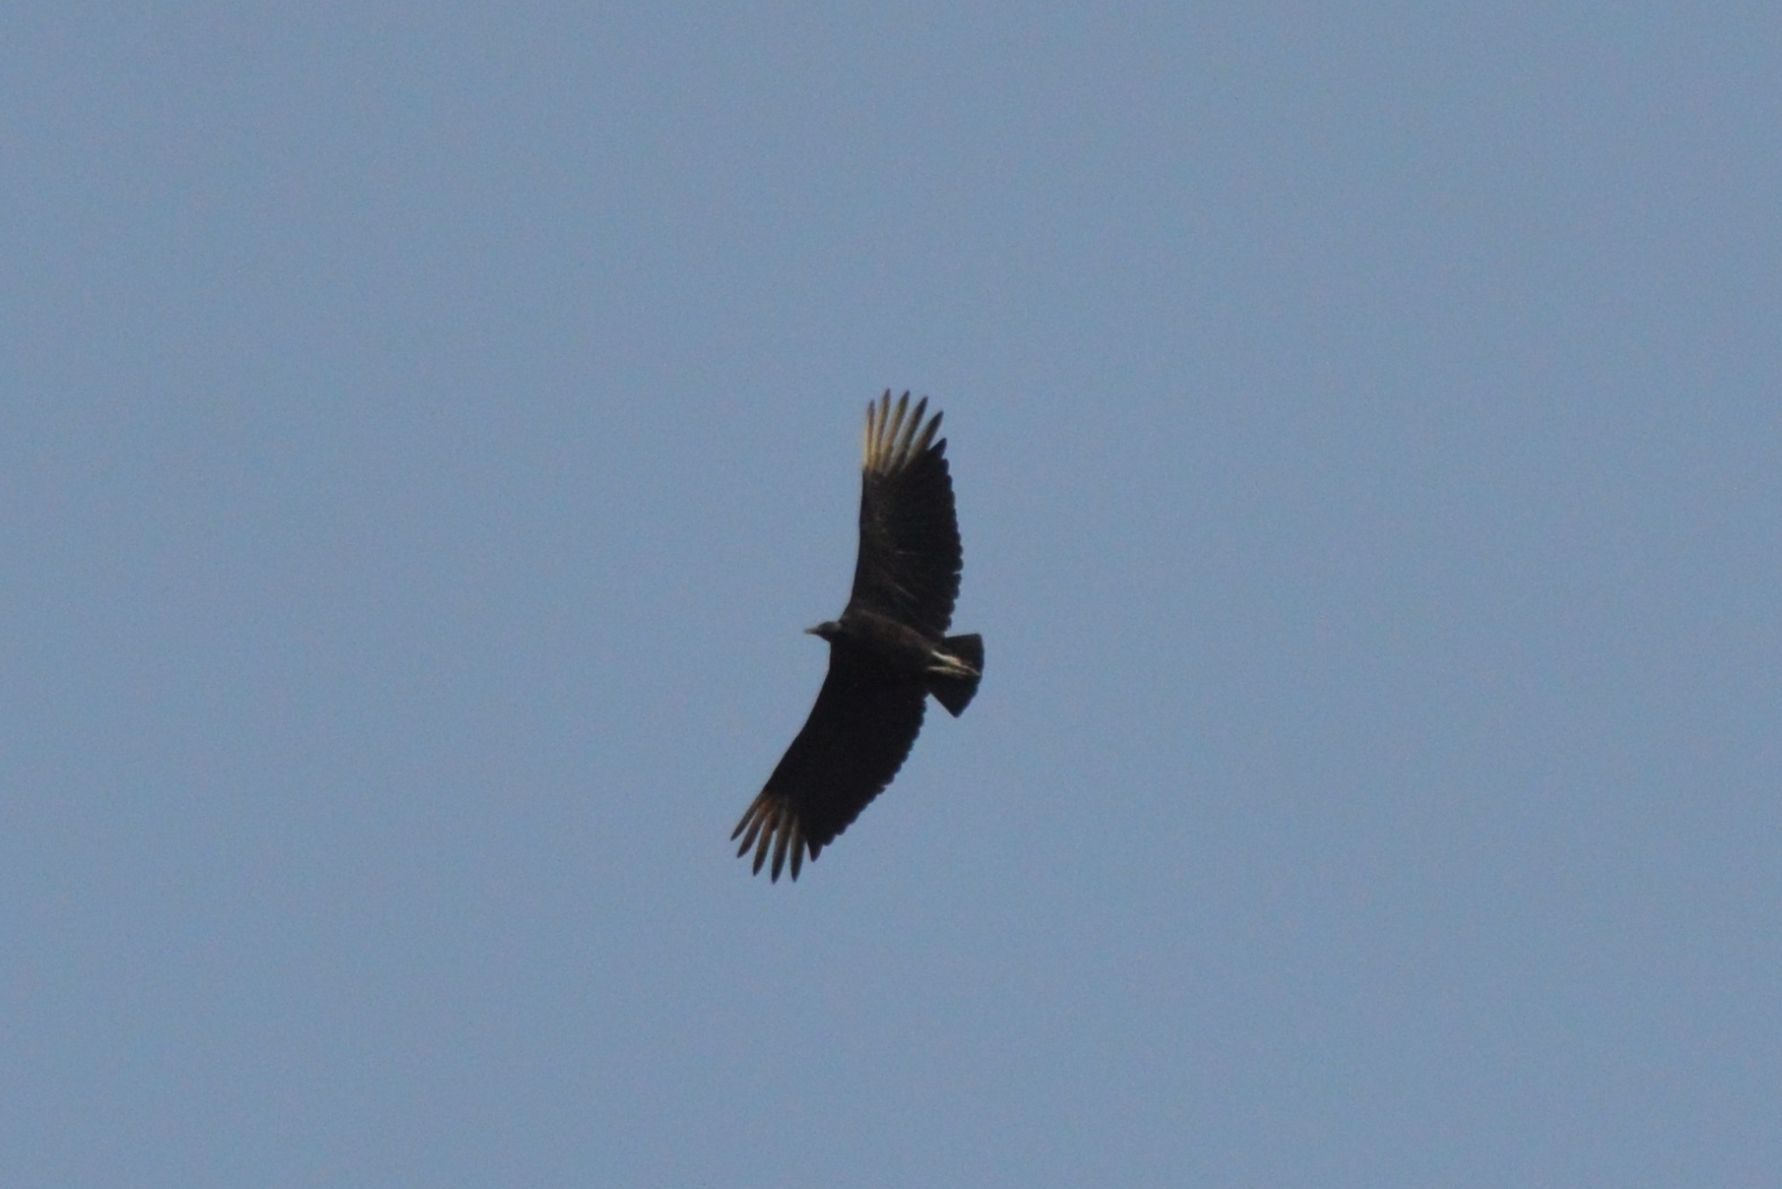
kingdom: Animalia
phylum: Chordata
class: Aves
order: Accipitriformes
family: Cathartidae
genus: Coragyps
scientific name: Coragyps atratus
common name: Black vulture
